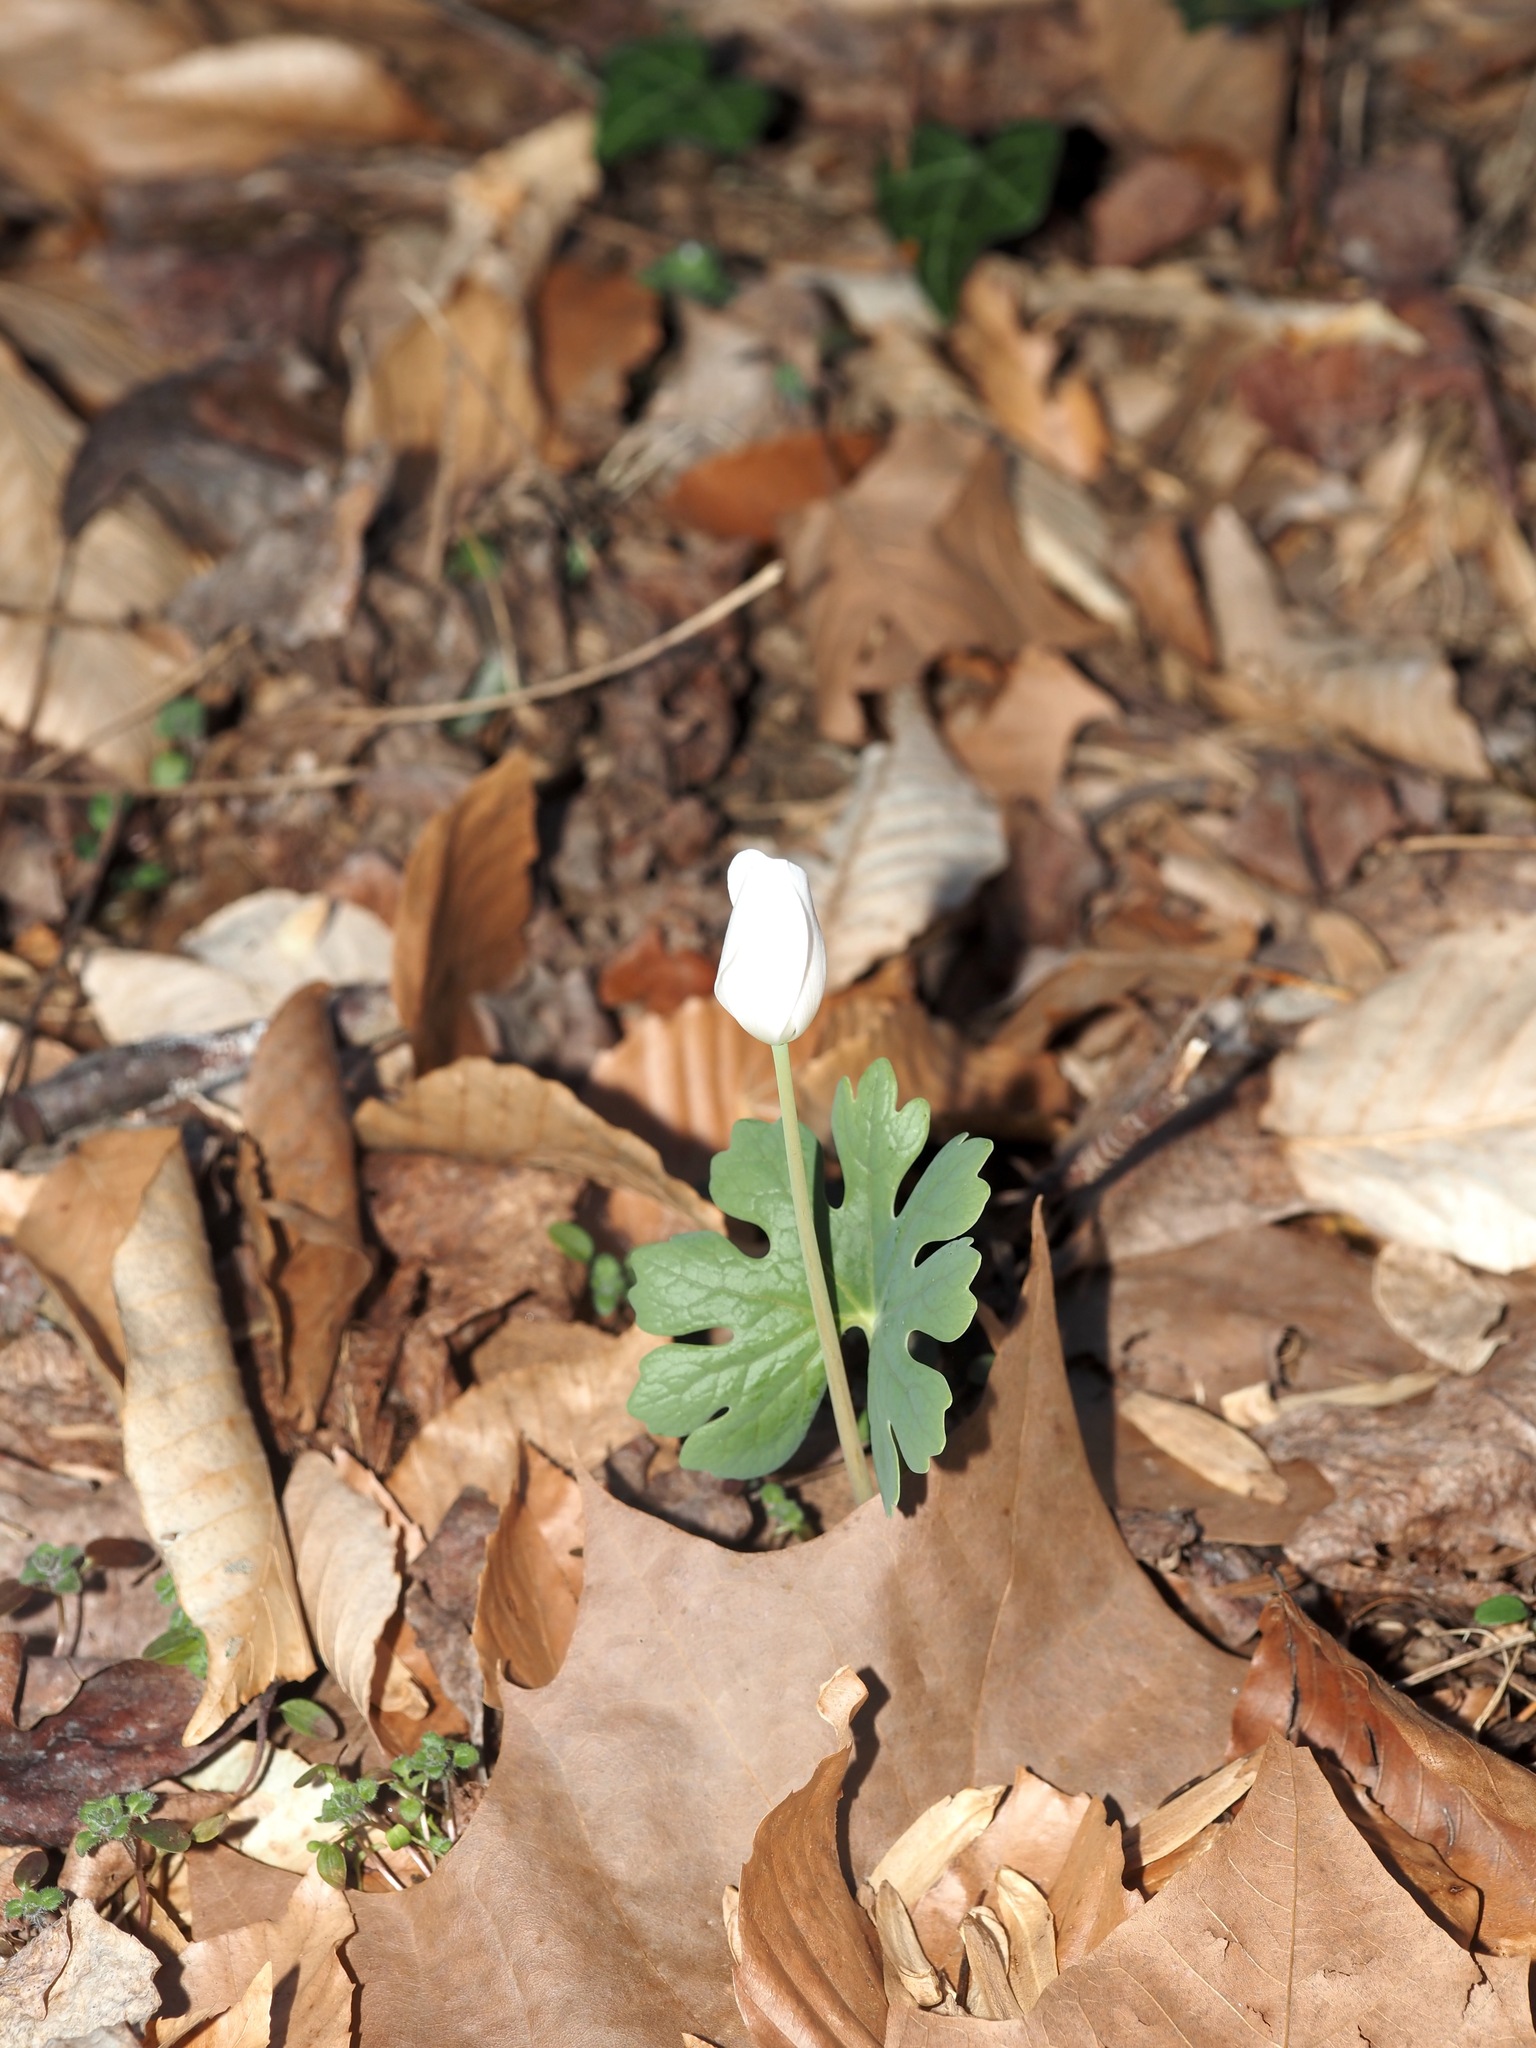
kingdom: Plantae
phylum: Tracheophyta
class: Magnoliopsida
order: Ranunculales
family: Papaveraceae
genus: Sanguinaria
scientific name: Sanguinaria canadensis
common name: Bloodroot
